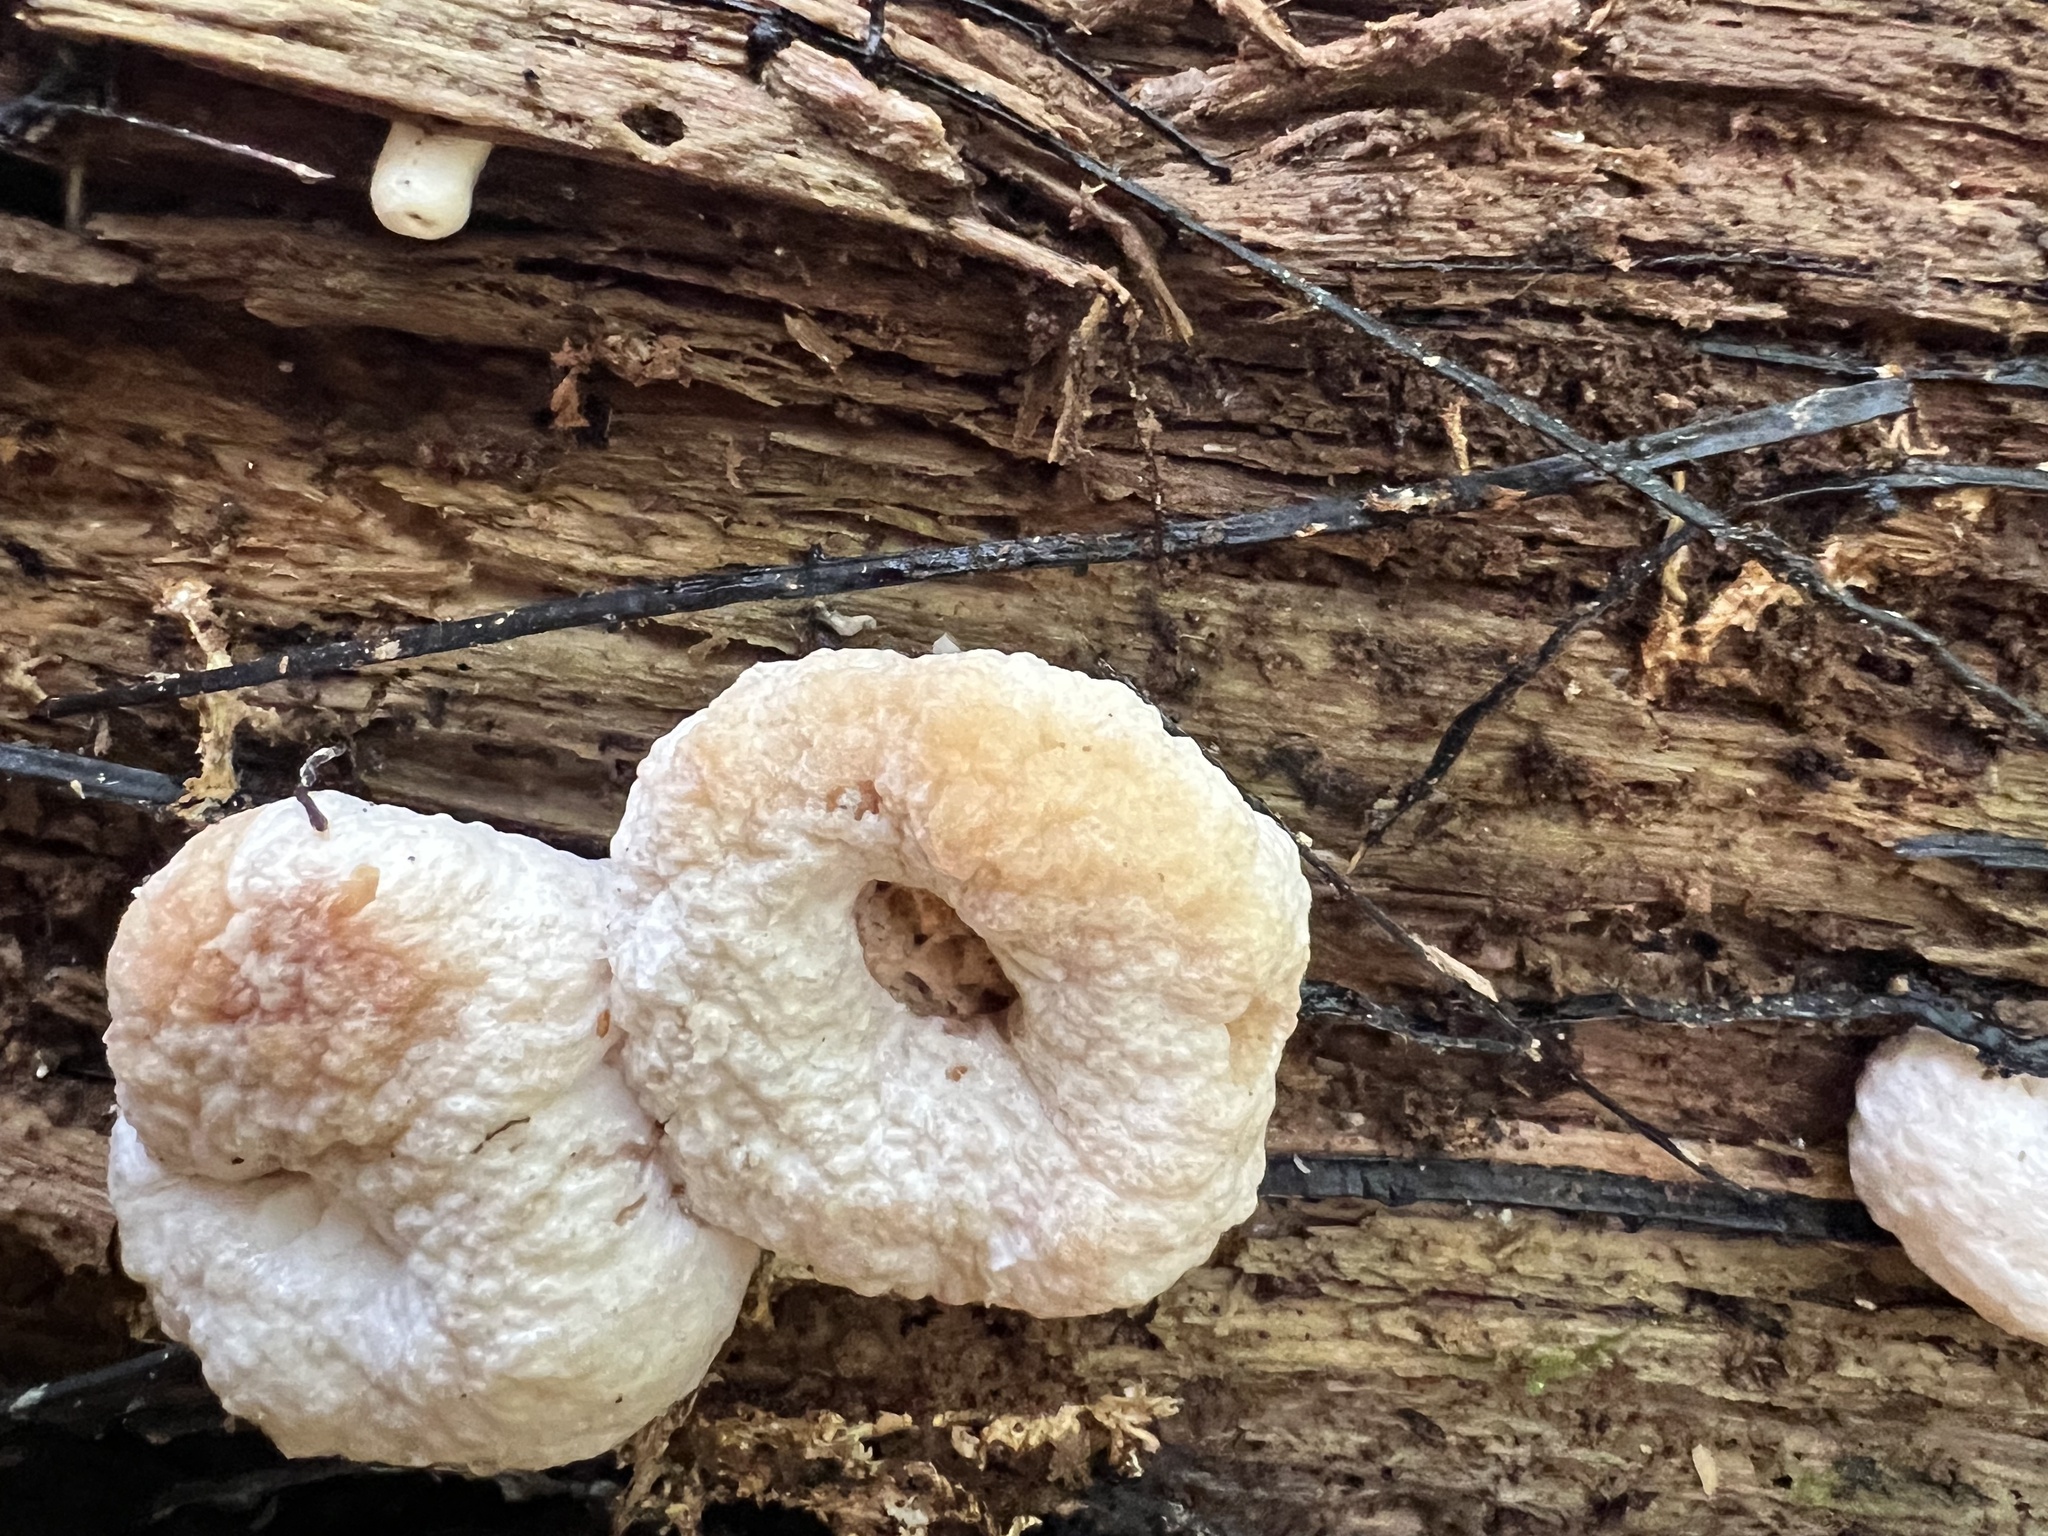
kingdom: Fungi
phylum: Basidiomycota
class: Agaricomycetes
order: Agaricales
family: Entolomataceae
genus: Entoloma
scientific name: Entoloma abortivum
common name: Aborted entoloma
